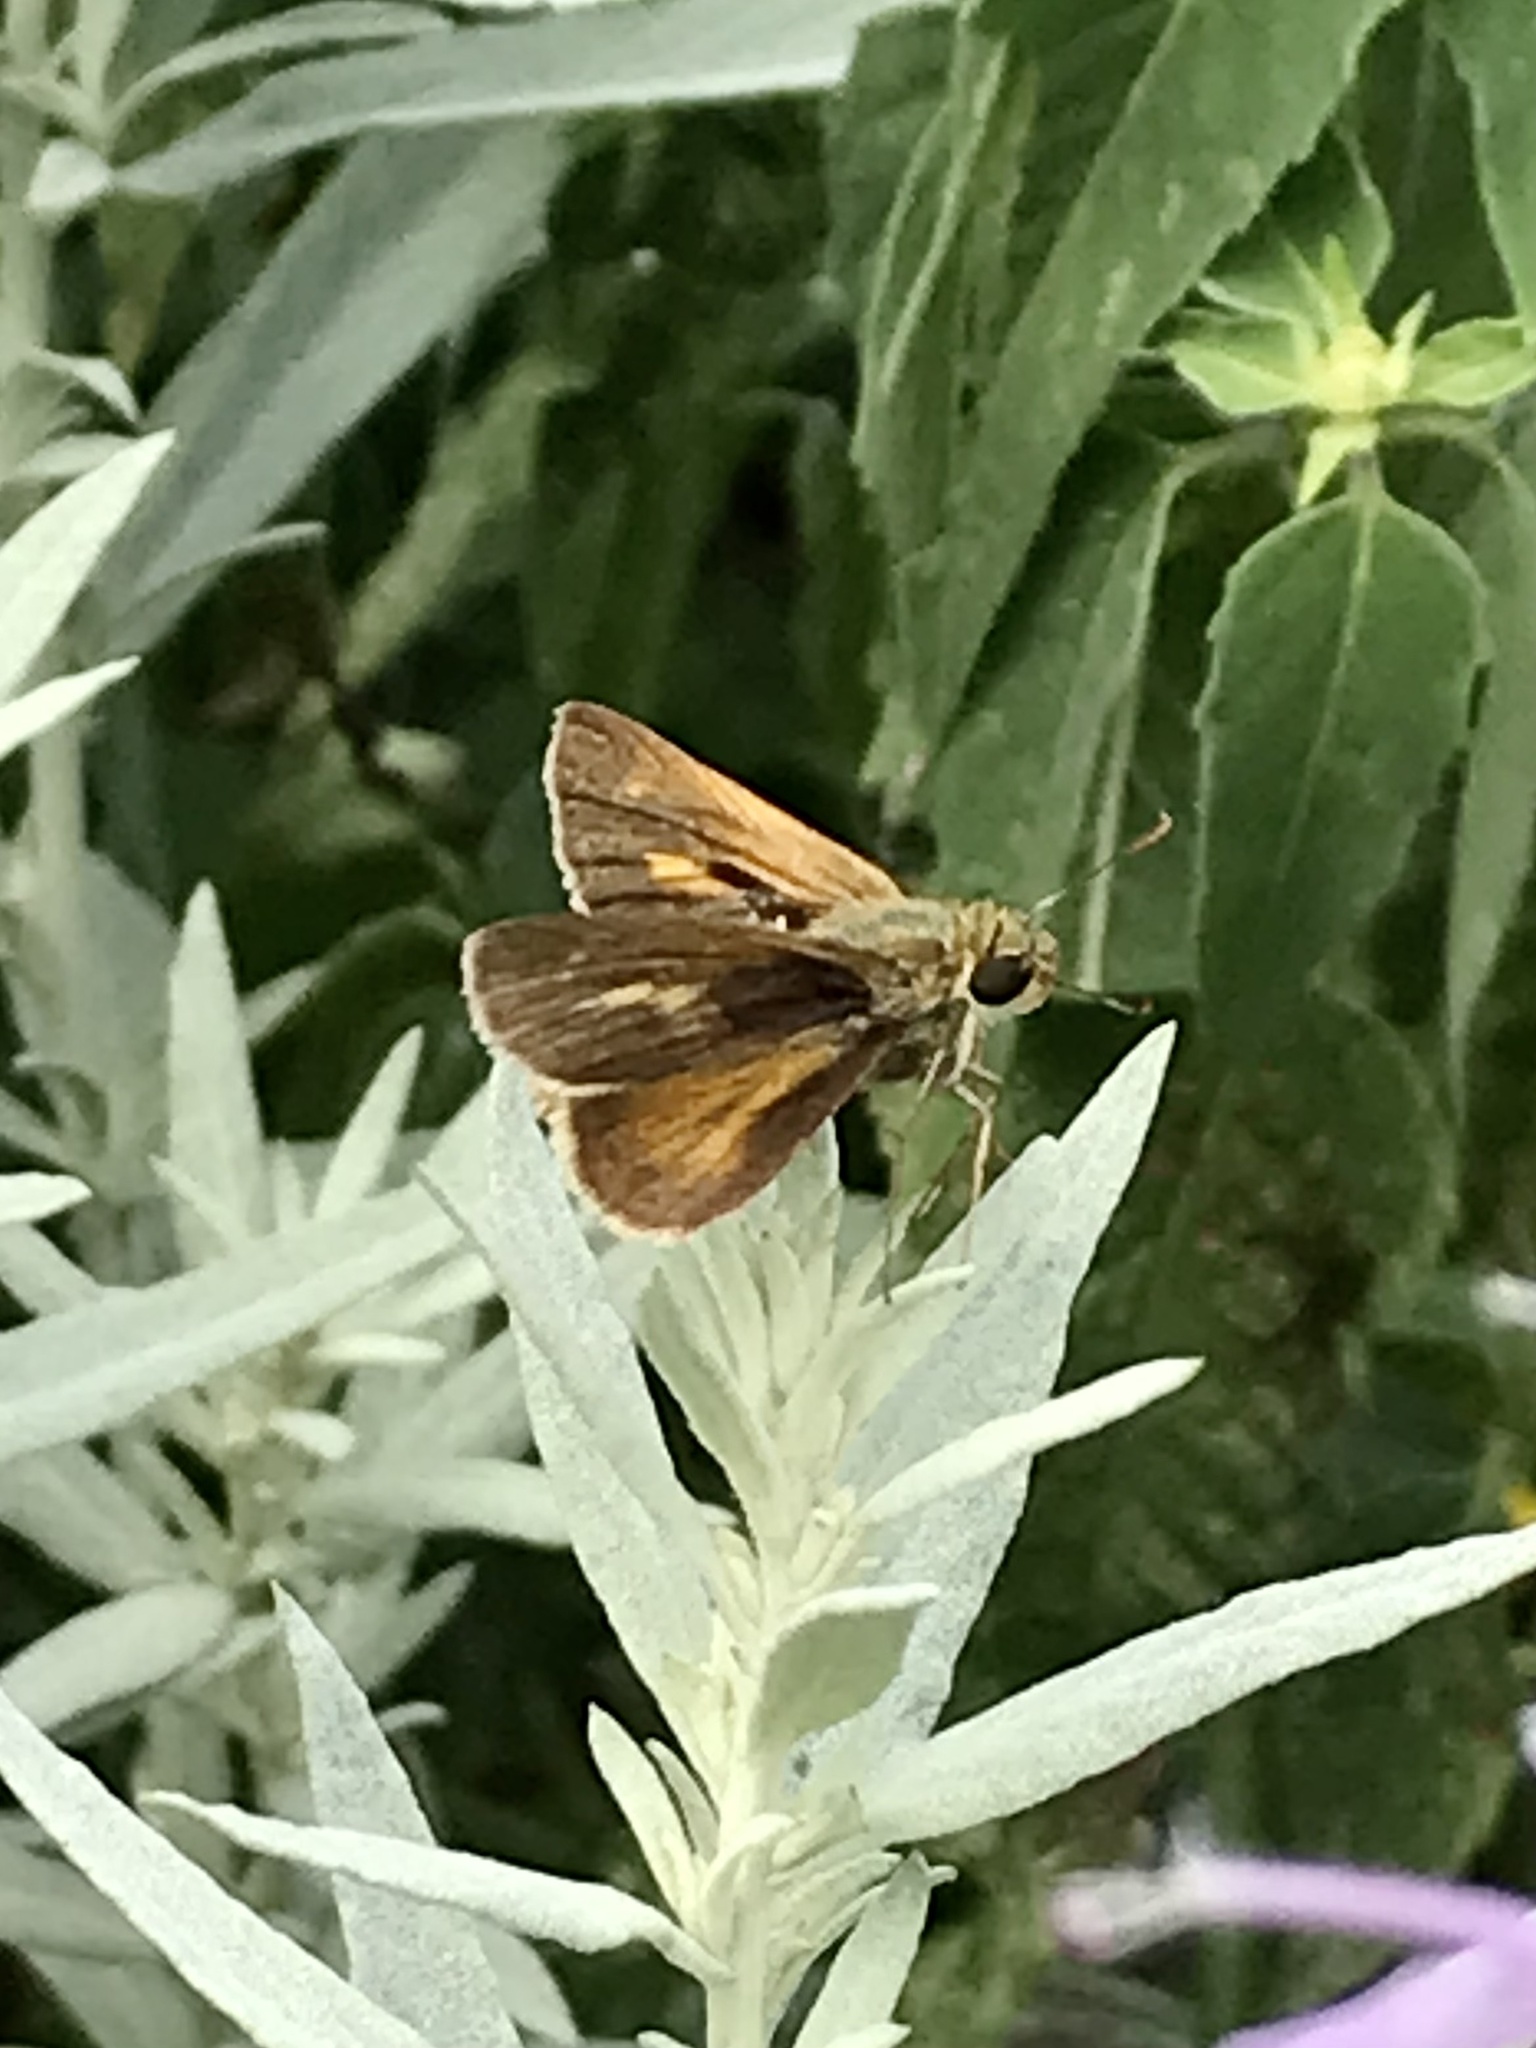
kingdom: Animalia
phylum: Arthropoda
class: Insecta
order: Lepidoptera
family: Hesperiidae
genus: Polites
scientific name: Polites egeremet
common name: Northern broken-dash
